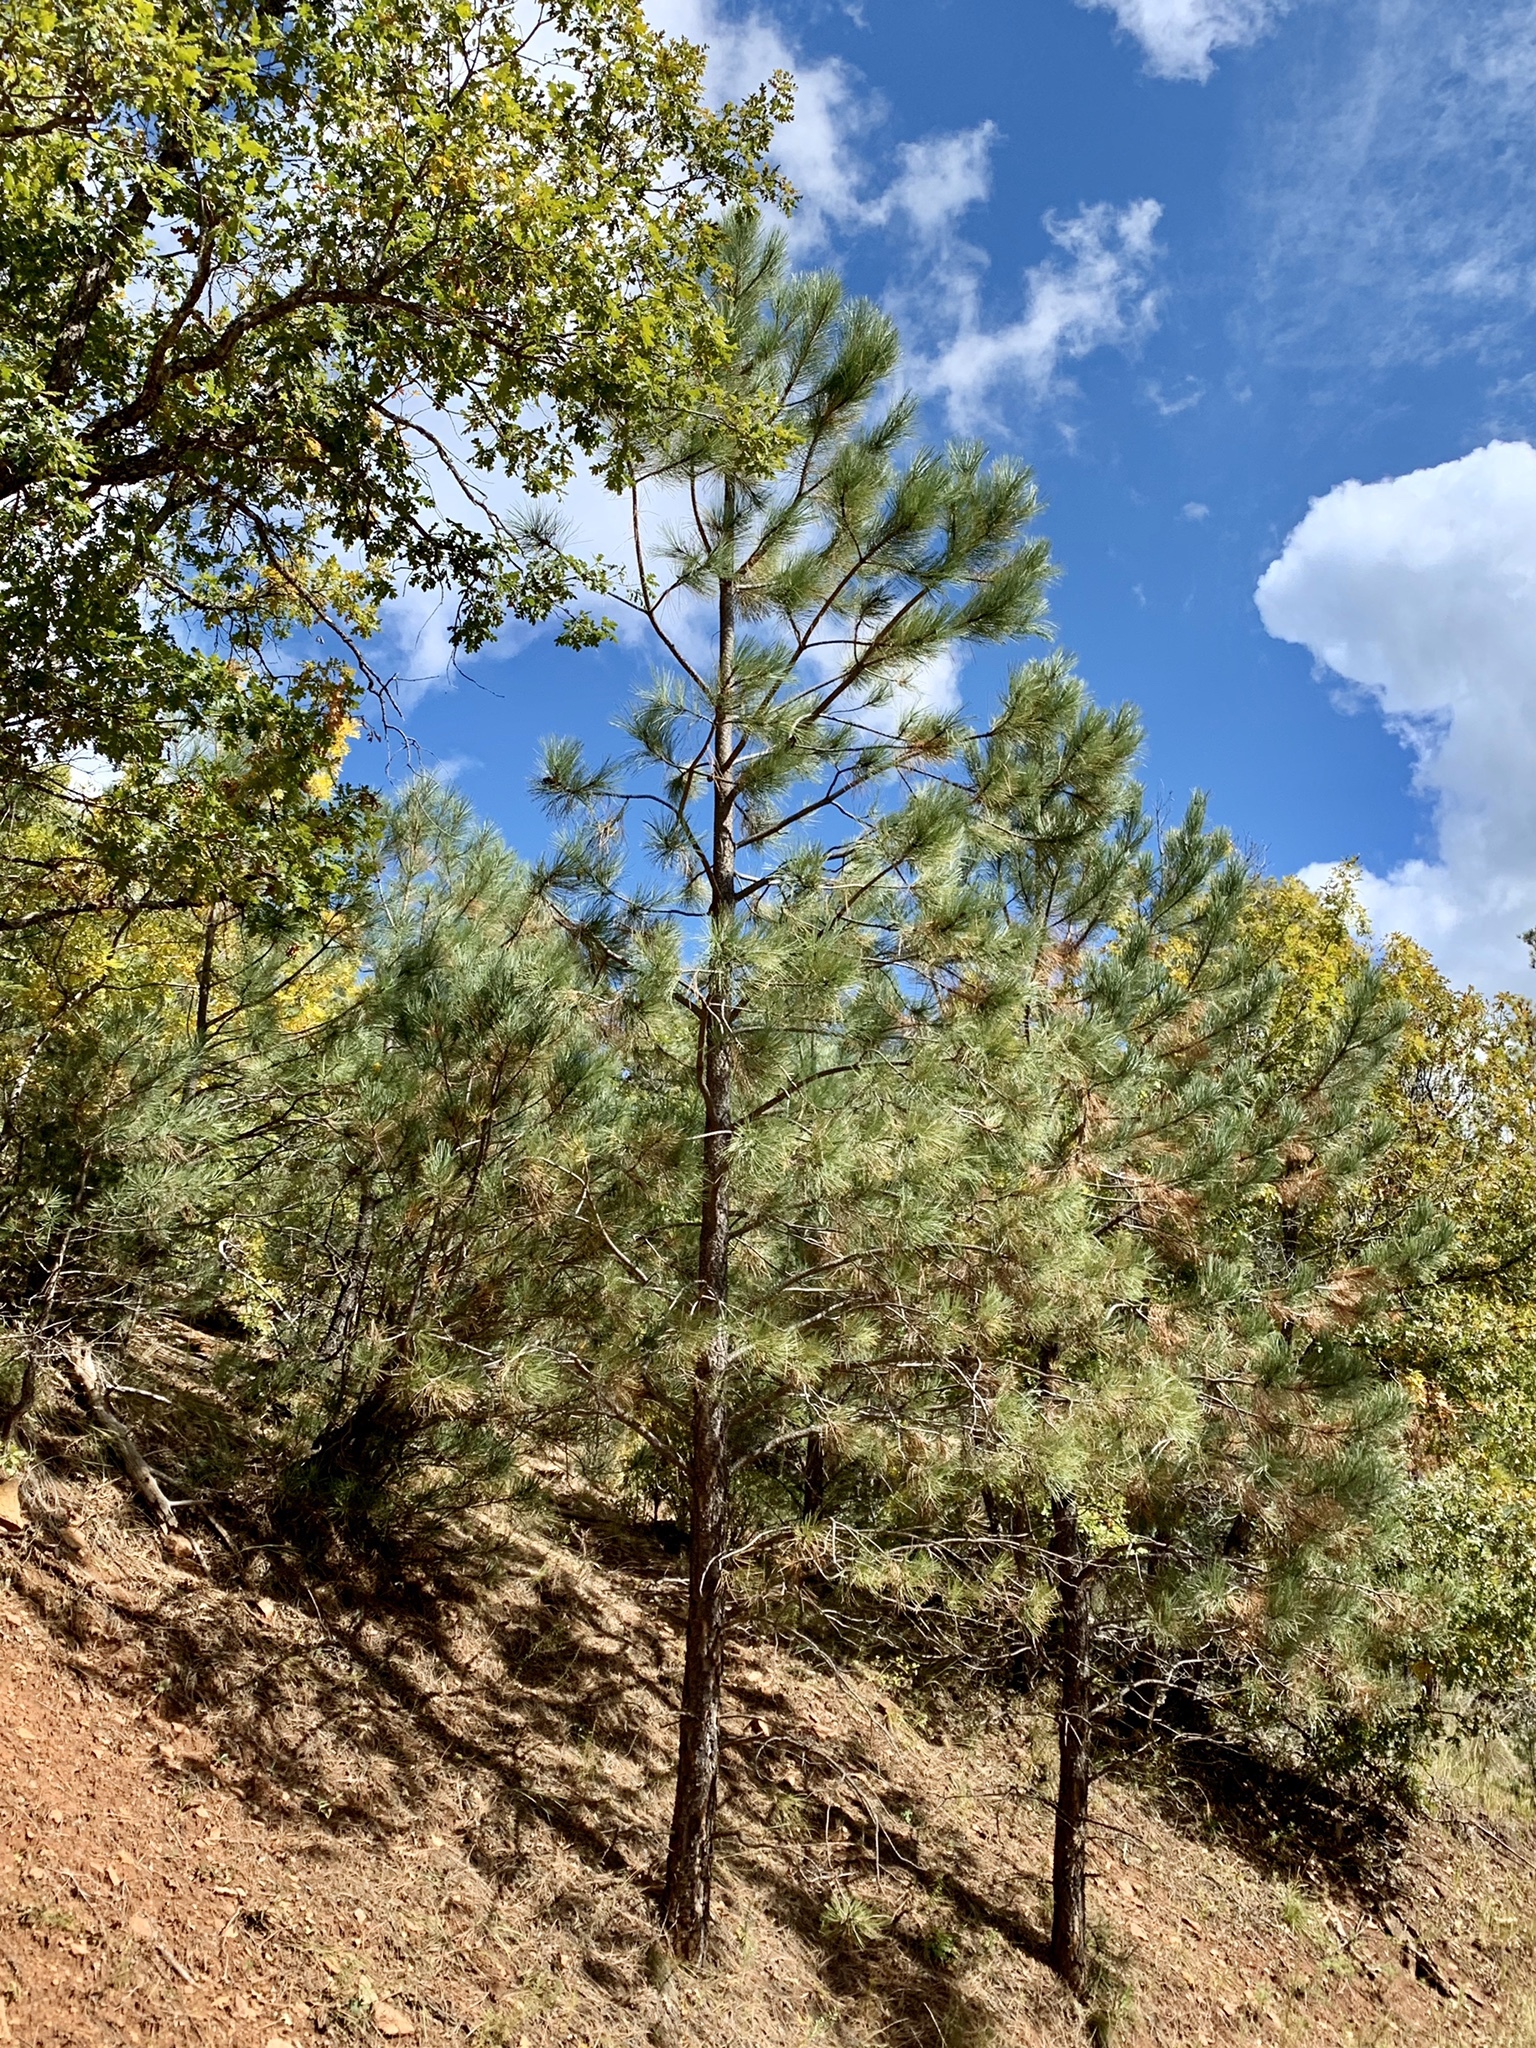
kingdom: Plantae
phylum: Tracheophyta
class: Pinopsida
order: Pinales
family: Pinaceae
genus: Pinus
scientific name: Pinus ponderosa
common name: Western yellow-pine
